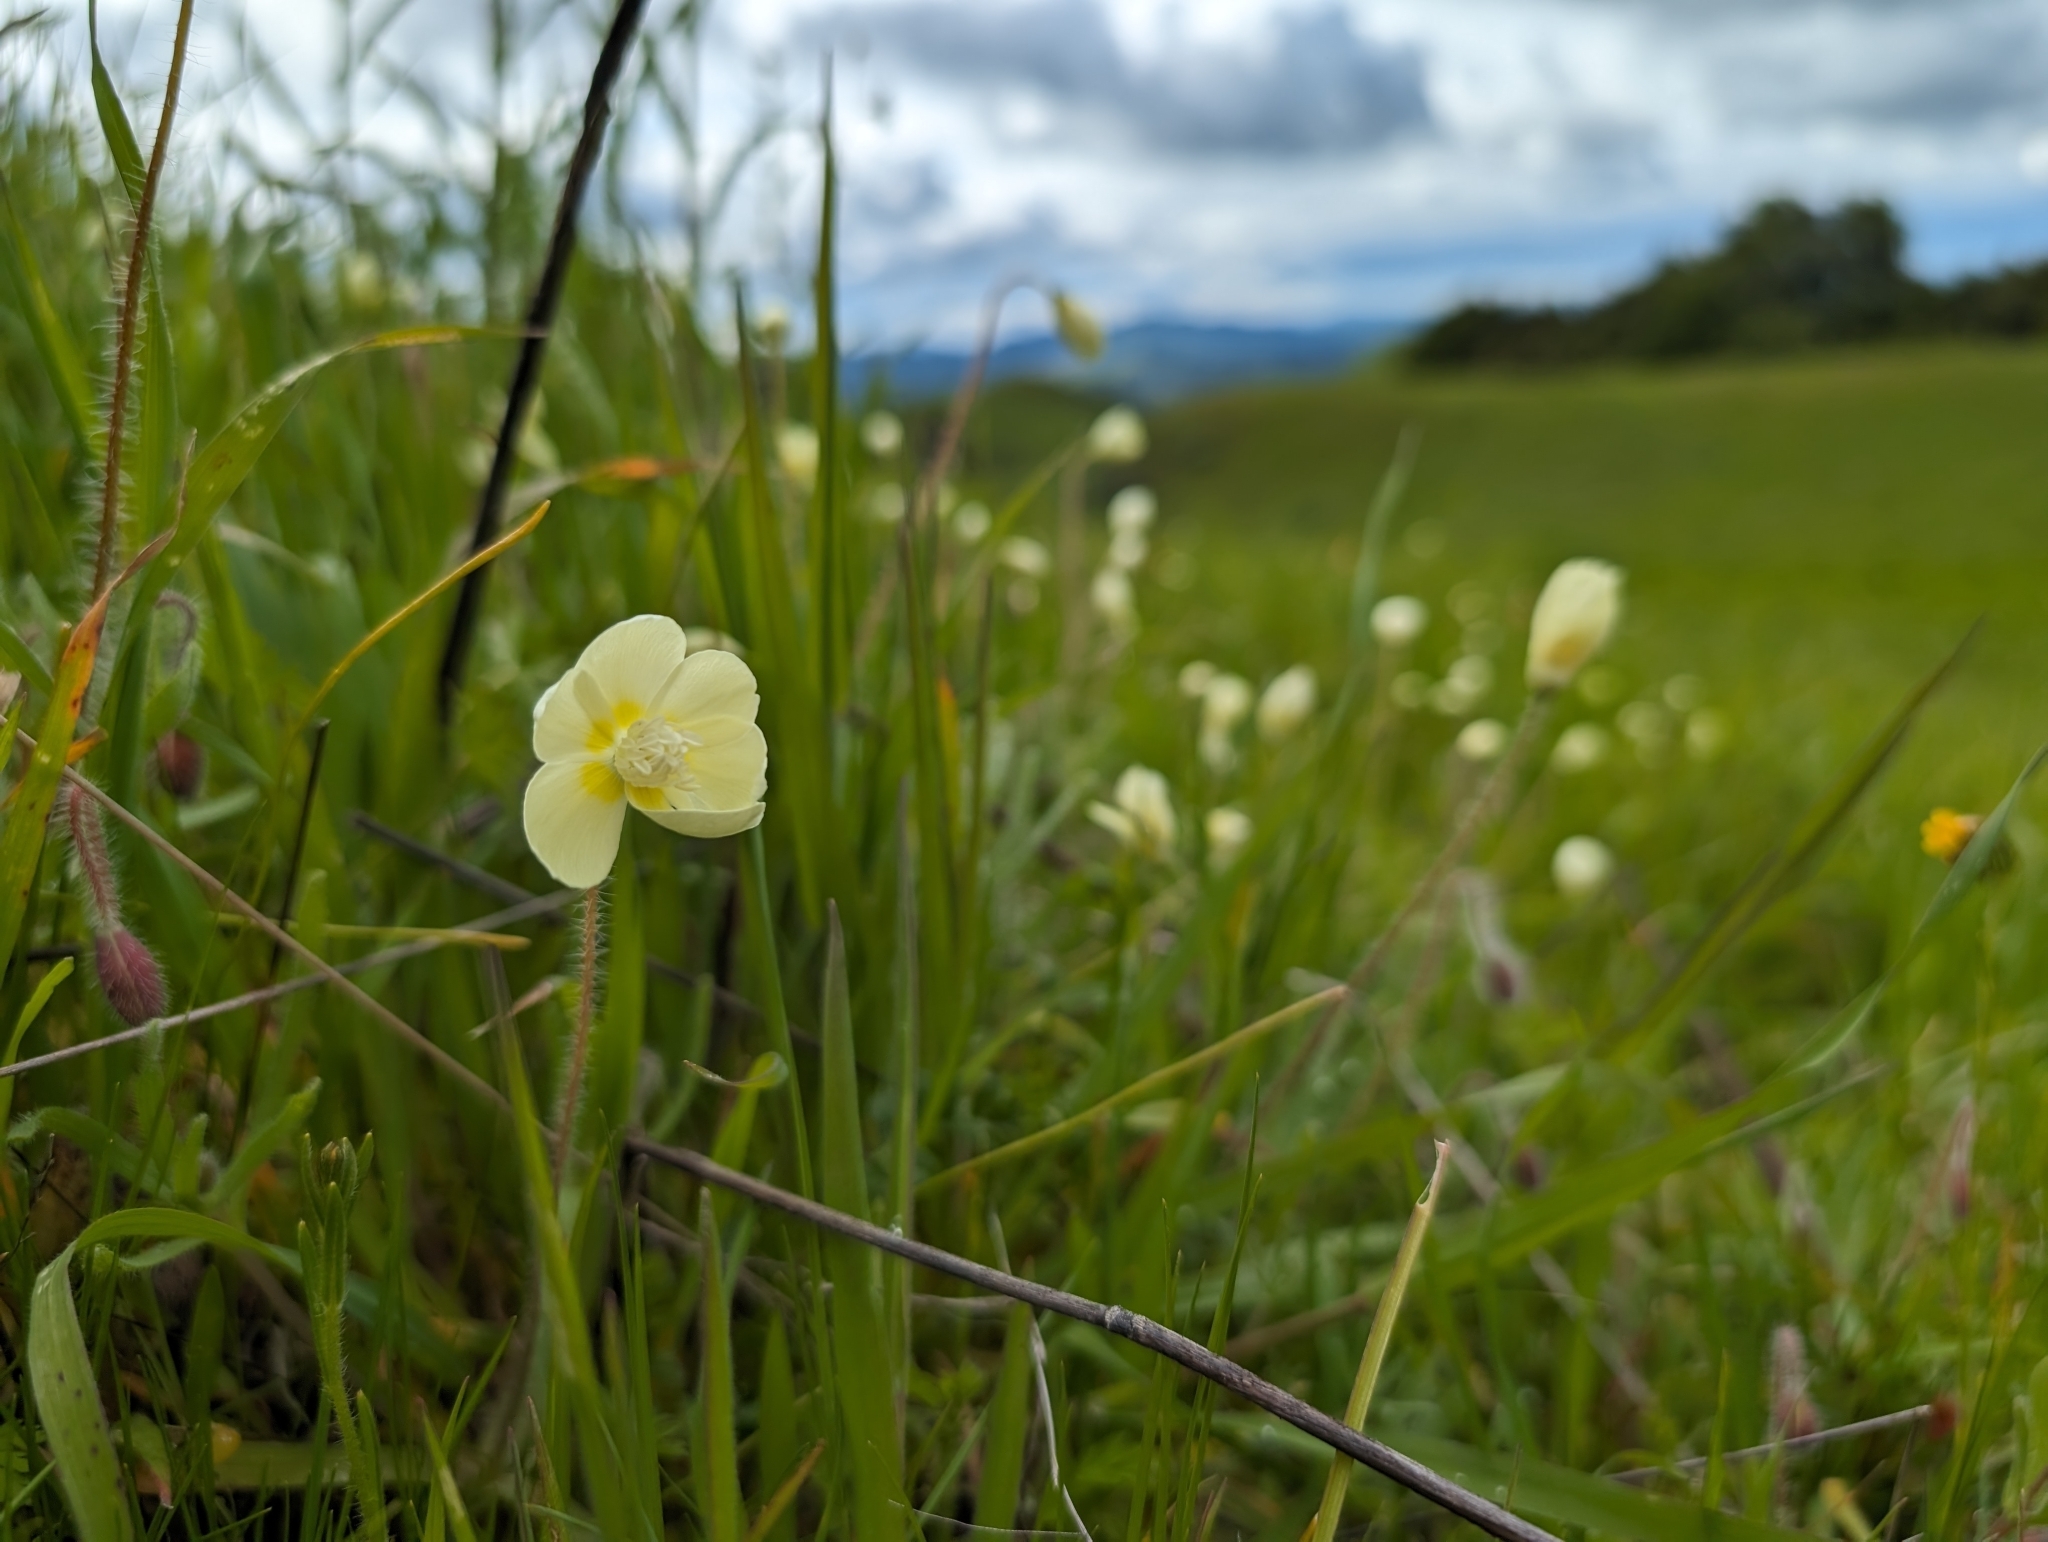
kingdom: Plantae
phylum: Tracheophyta
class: Magnoliopsida
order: Ranunculales
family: Papaveraceae
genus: Platystemon
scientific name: Platystemon californicus
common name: Cream-cups
